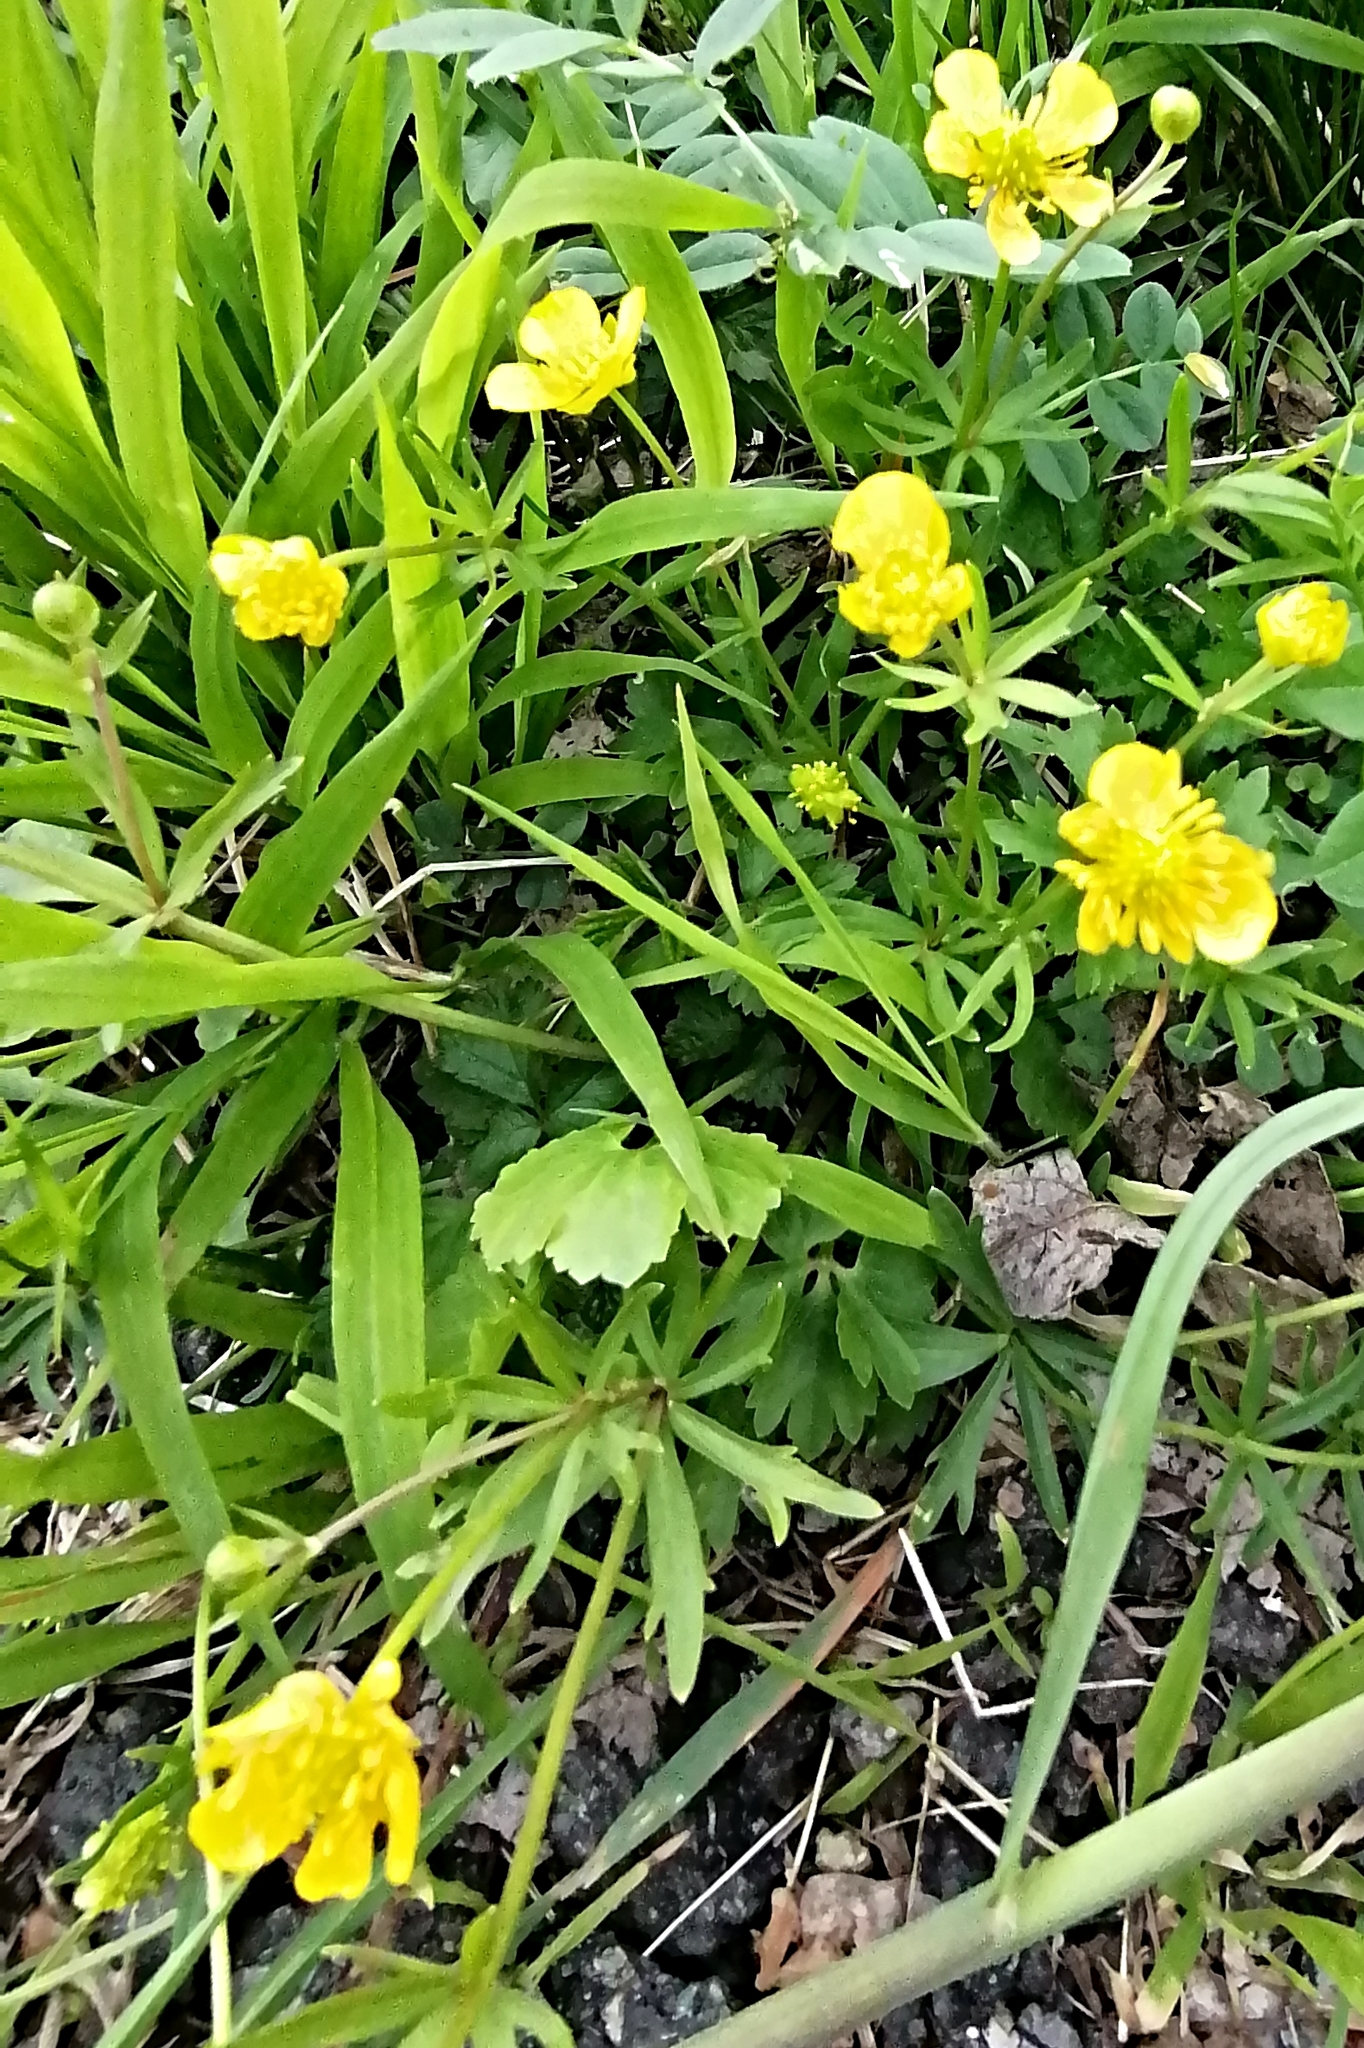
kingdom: Plantae
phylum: Tracheophyta
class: Magnoliopsida
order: Ranunculales
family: Ranunculaceae
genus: Ranunculus
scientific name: Ranunculus auricomus
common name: Goldilocks buttercup
